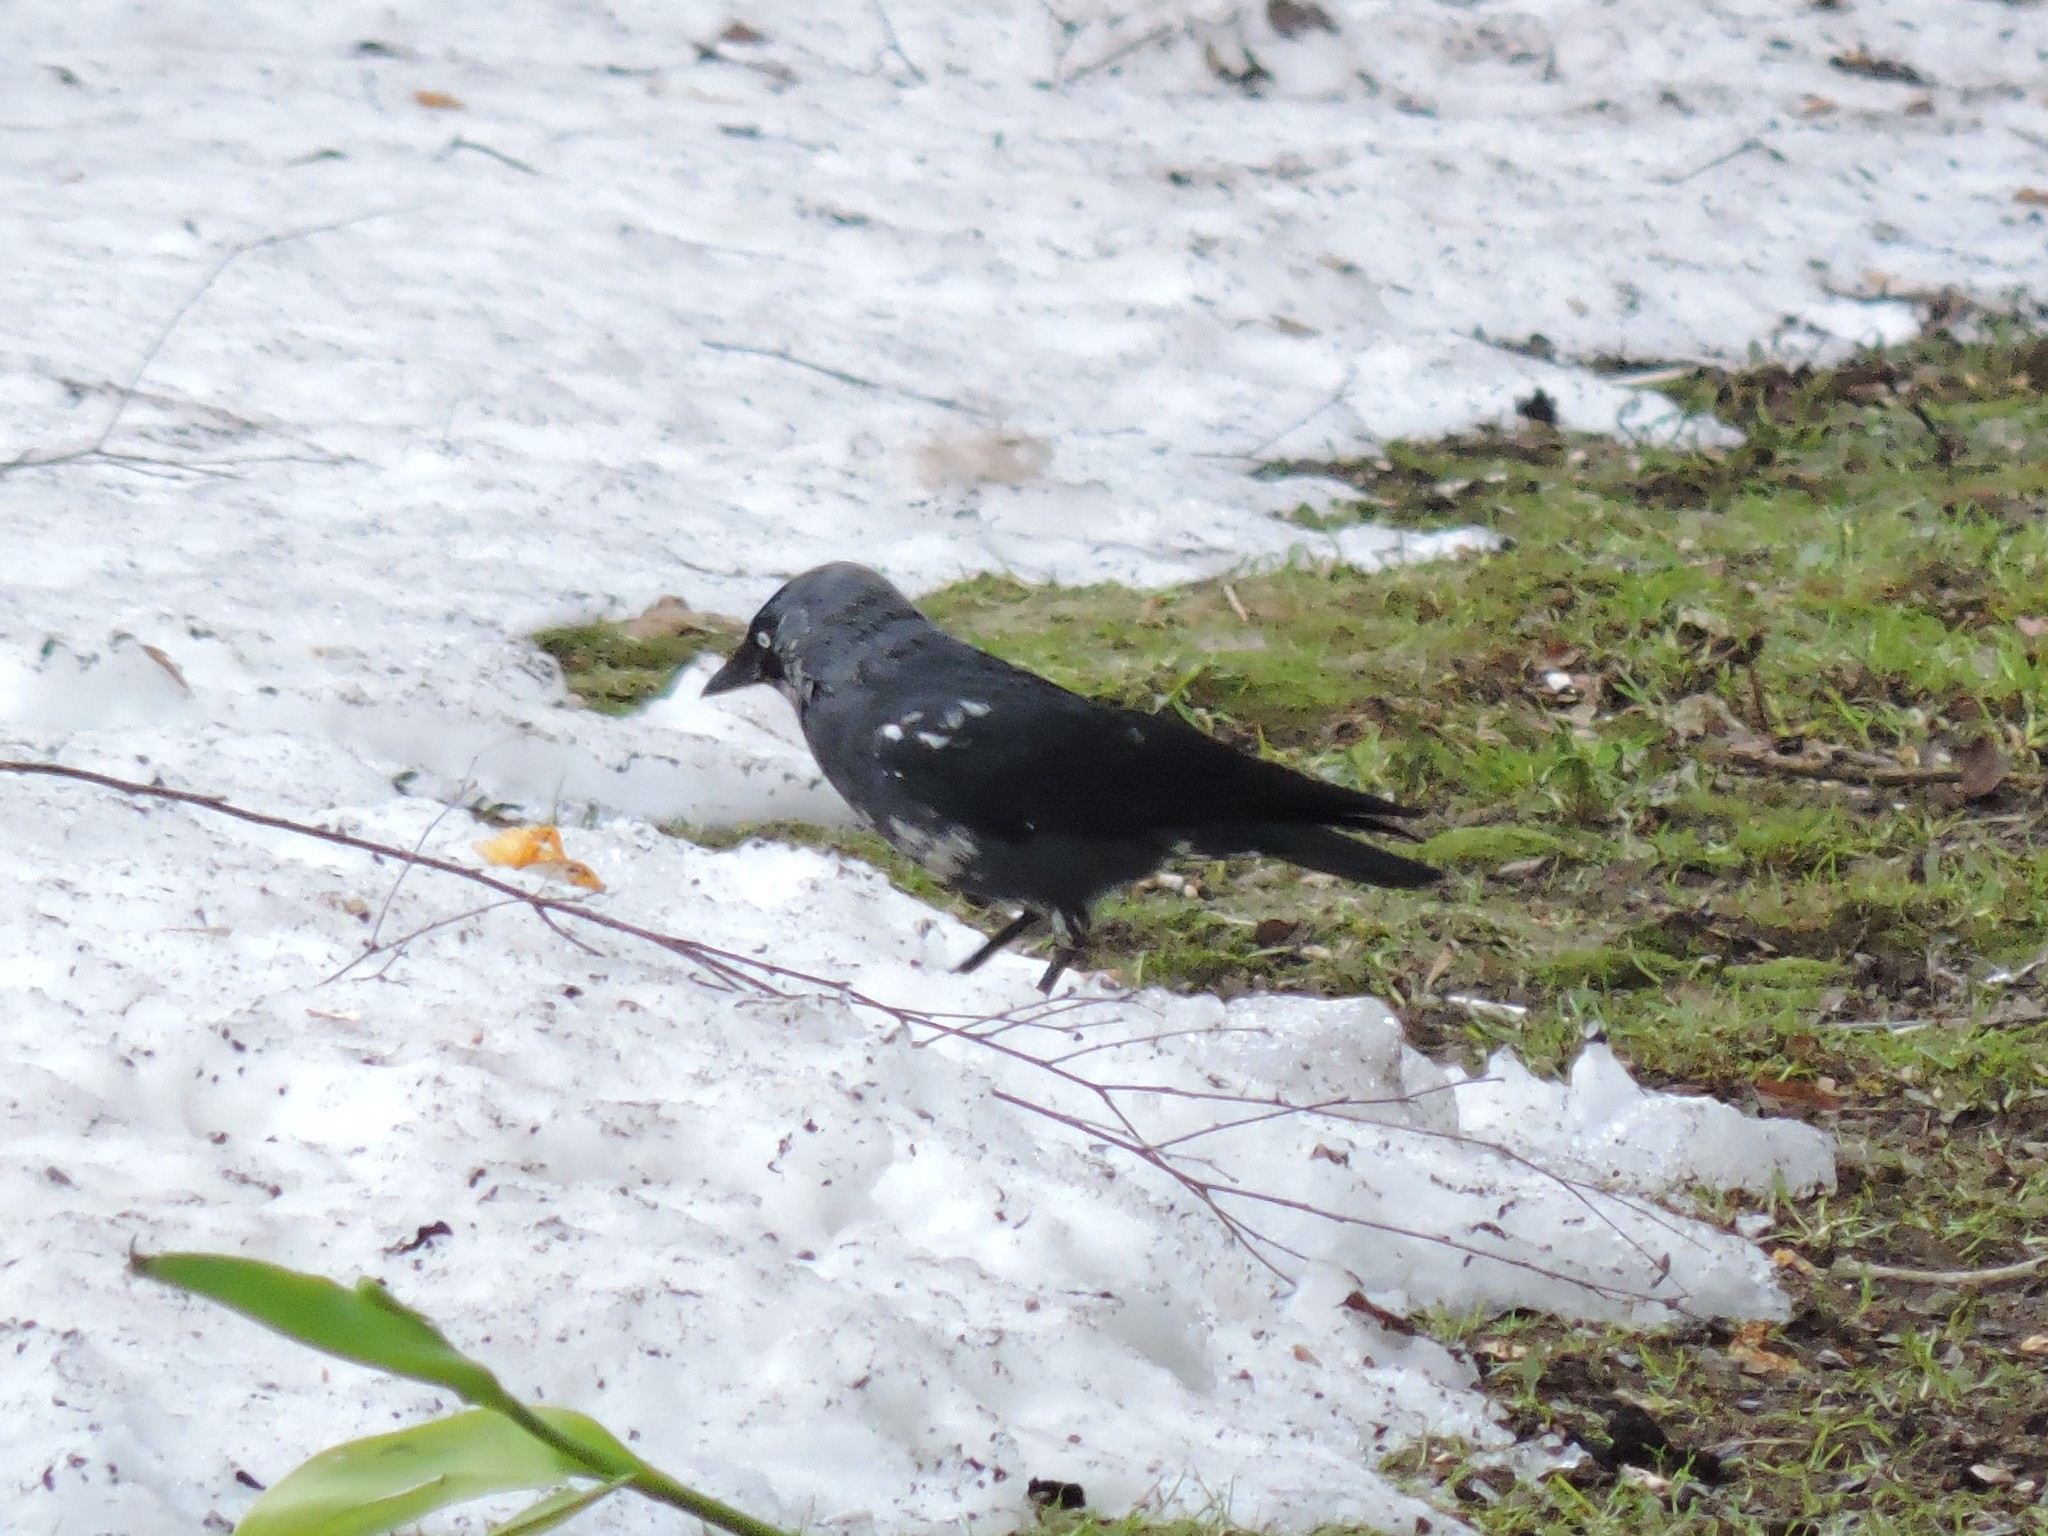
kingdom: Animalia
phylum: Chordata
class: Aves
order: Passeriformes
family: Corvidae
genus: Coloeus
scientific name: Coloeus monedula
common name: Western jackdaw
